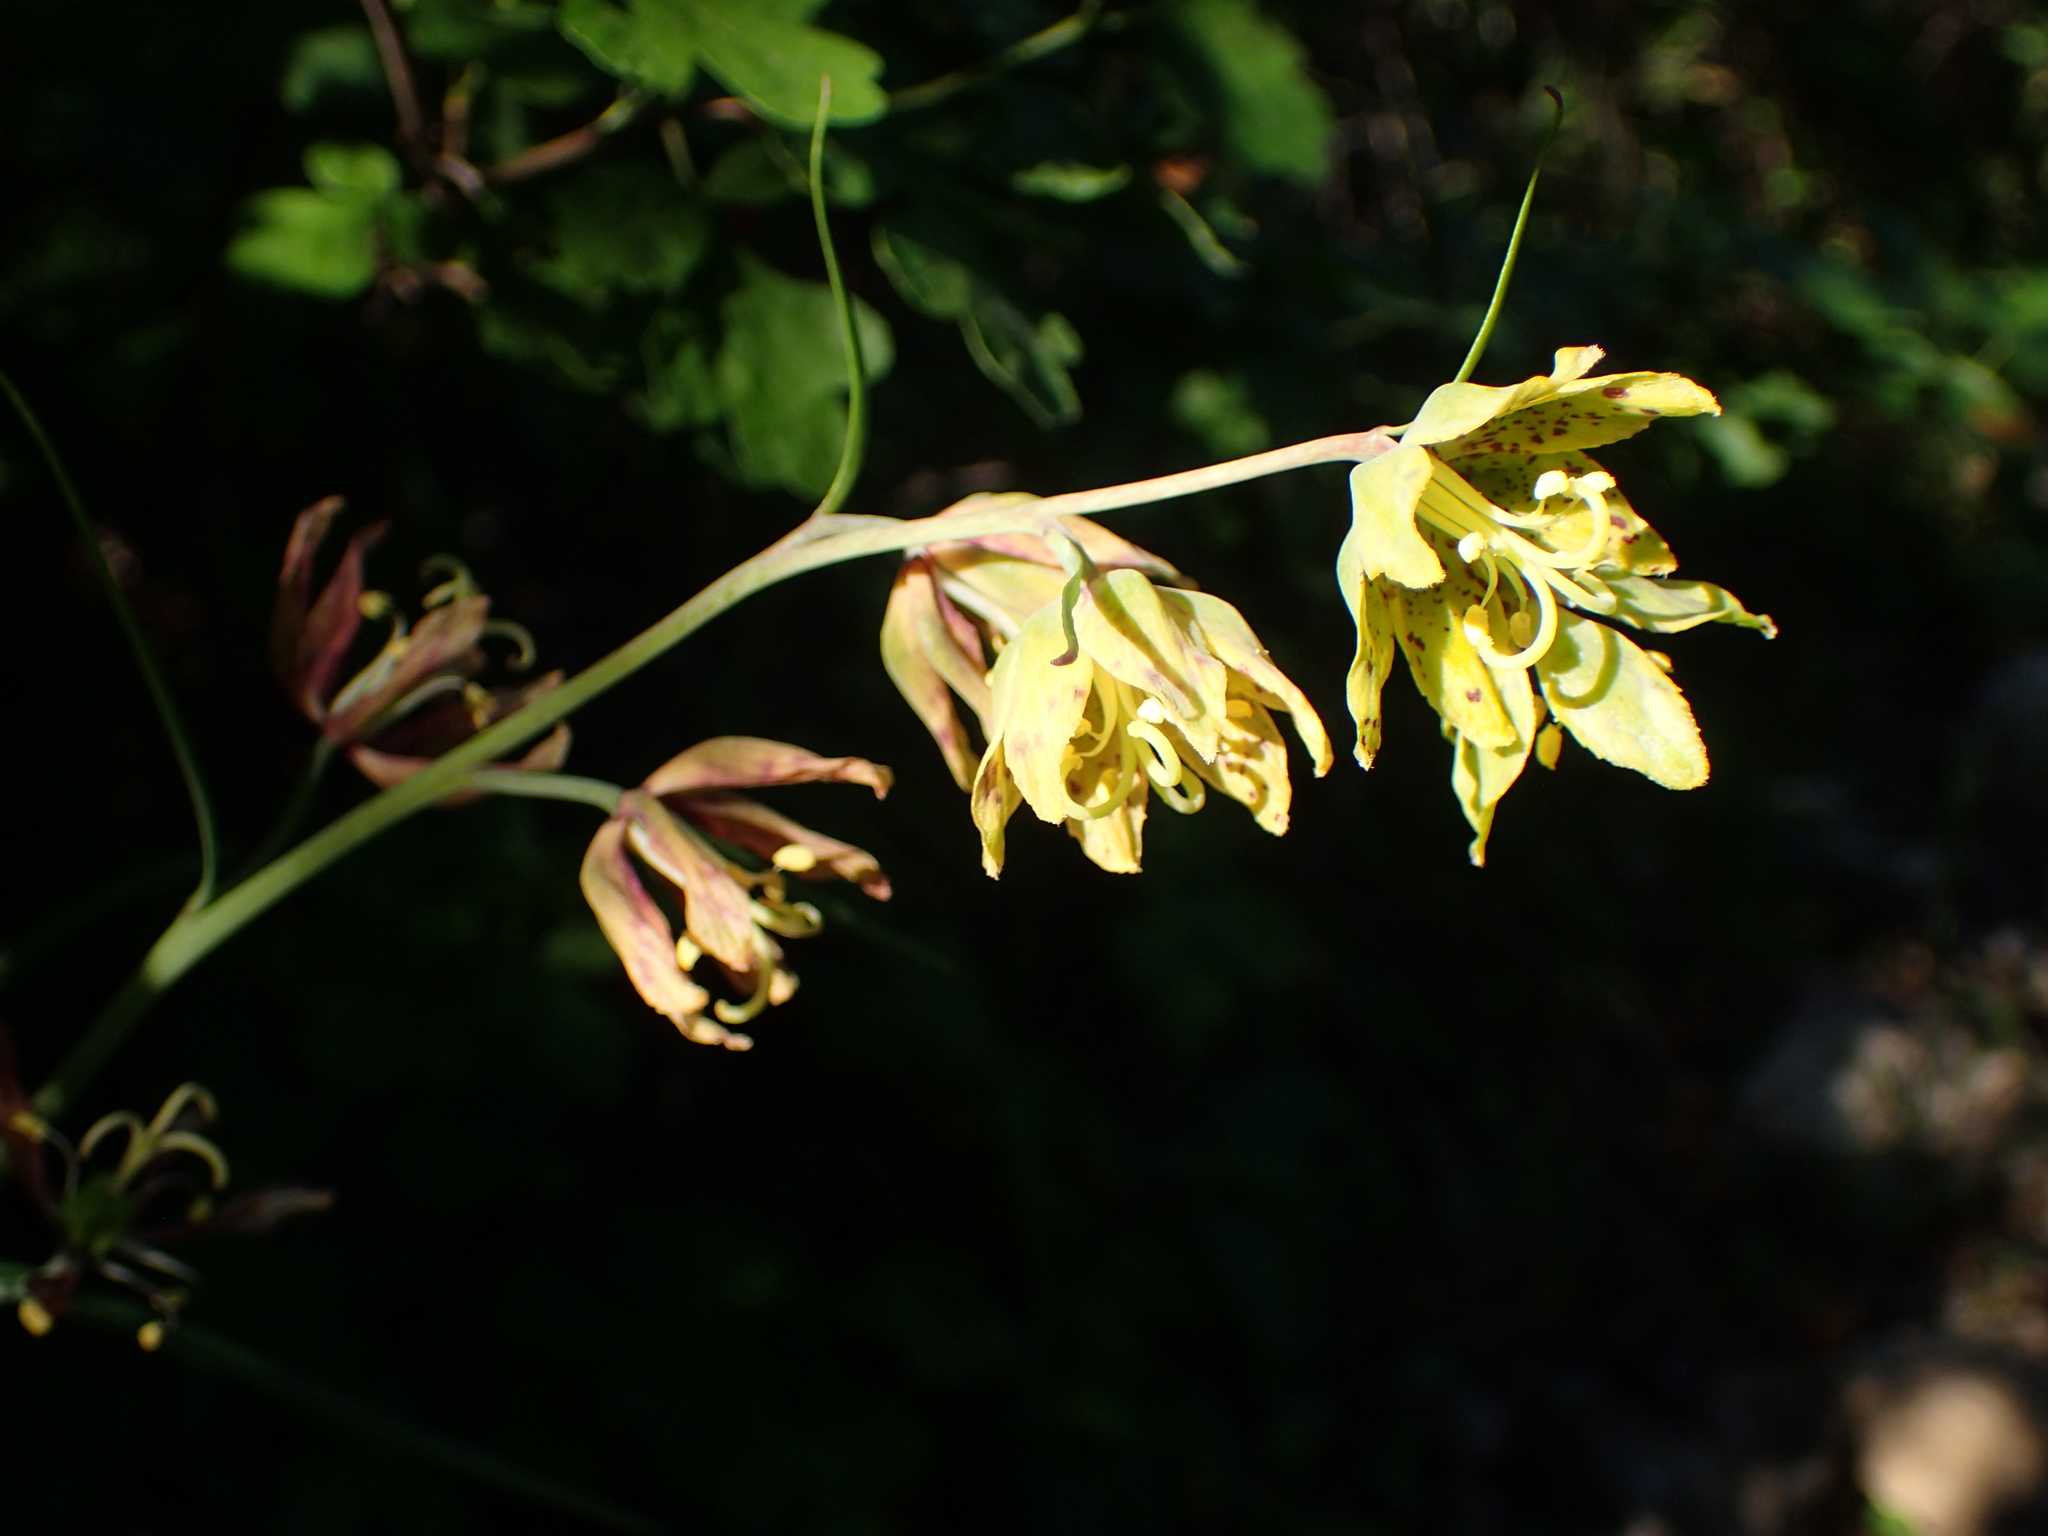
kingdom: Plantae
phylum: Tracheophyta
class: Liliopsida
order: Liliales
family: Liliaceae
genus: Fritillaria
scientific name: Fritillaria ojaiensis
